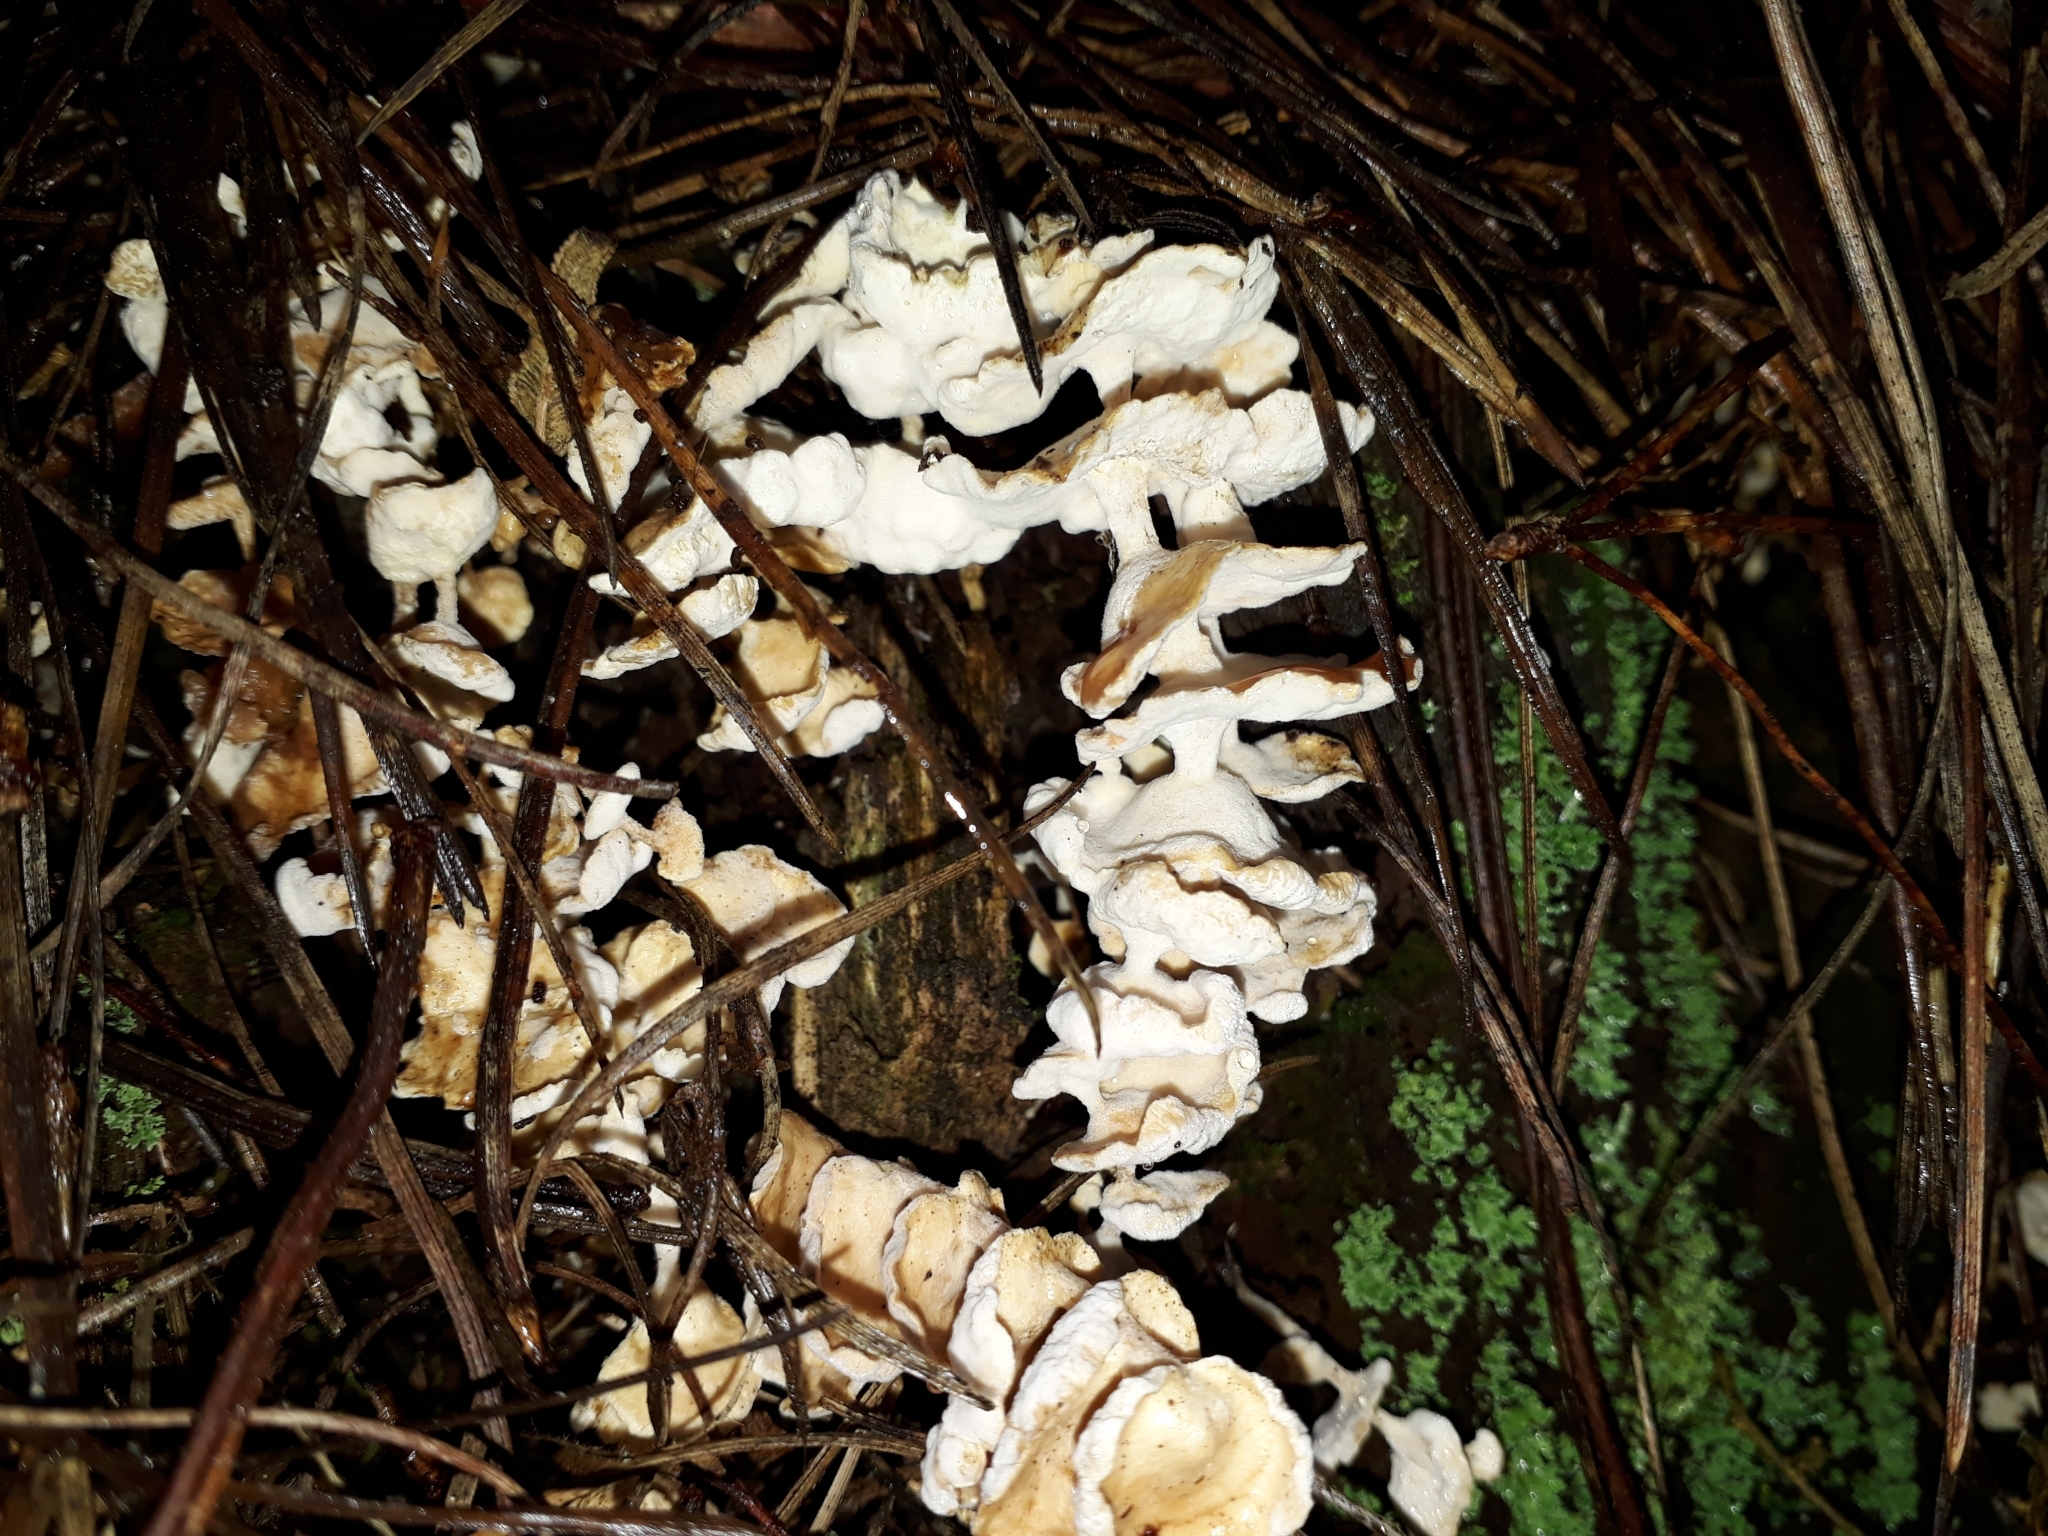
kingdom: Fungi
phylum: Basidiomycota
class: Agaricomycetes
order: Amylocorticiales
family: Amylocorticiaceae
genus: Podoserpula
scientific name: Podoserpula pusio
